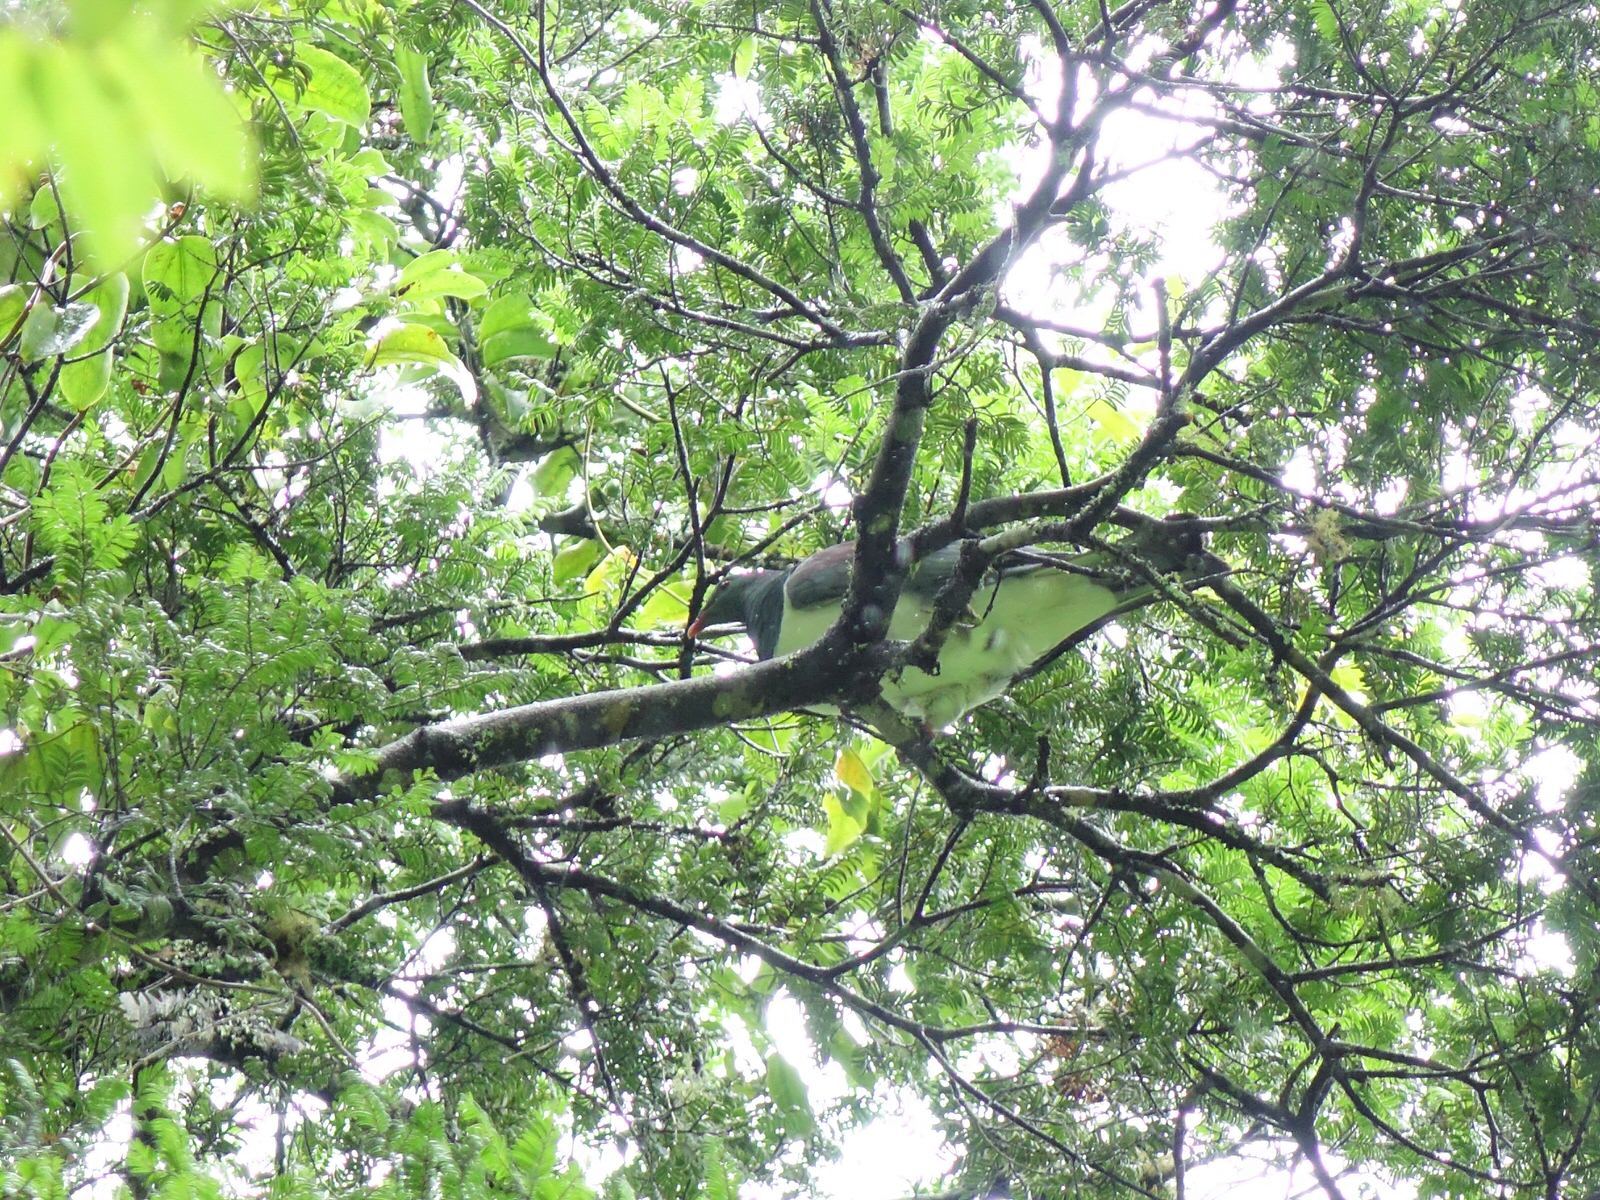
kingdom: Animalia
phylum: Chordata
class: Aves
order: Columbiformes
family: Columbidae
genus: Hemiphaga
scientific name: Hemiphaga novaeseelandiae
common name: New zealand pigeon
